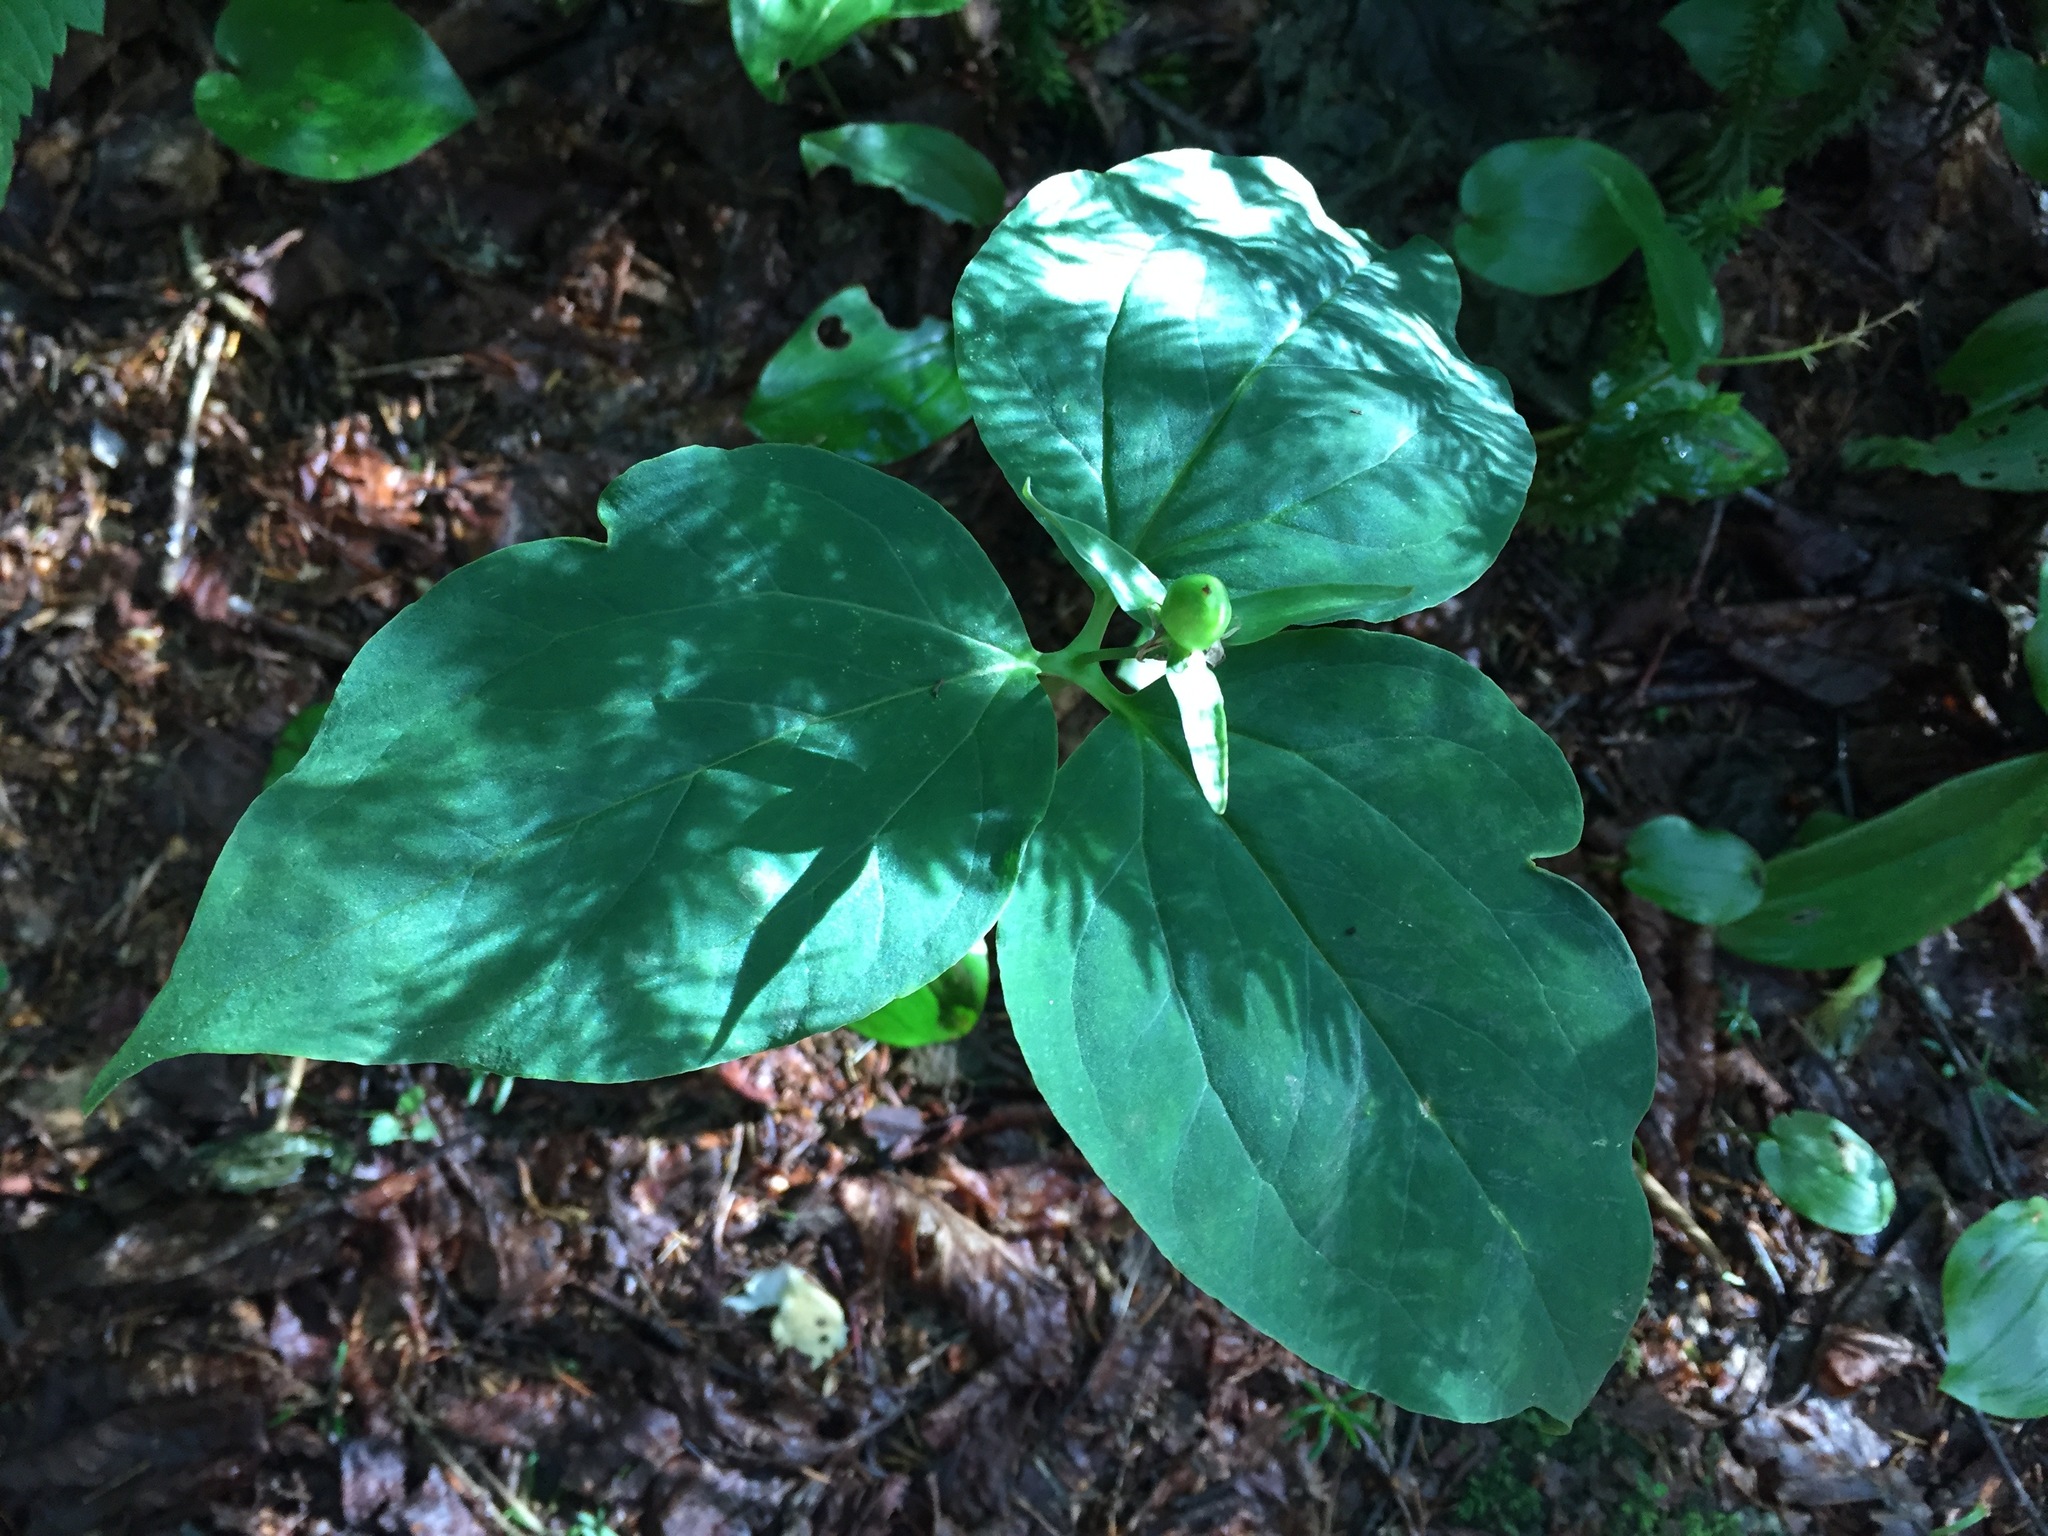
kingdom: Plantae
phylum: Tracheophyta
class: Liliopsida
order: Liliales
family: Melanthiaceae
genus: Trillium
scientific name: Trillium undulatum
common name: Paint trillium
